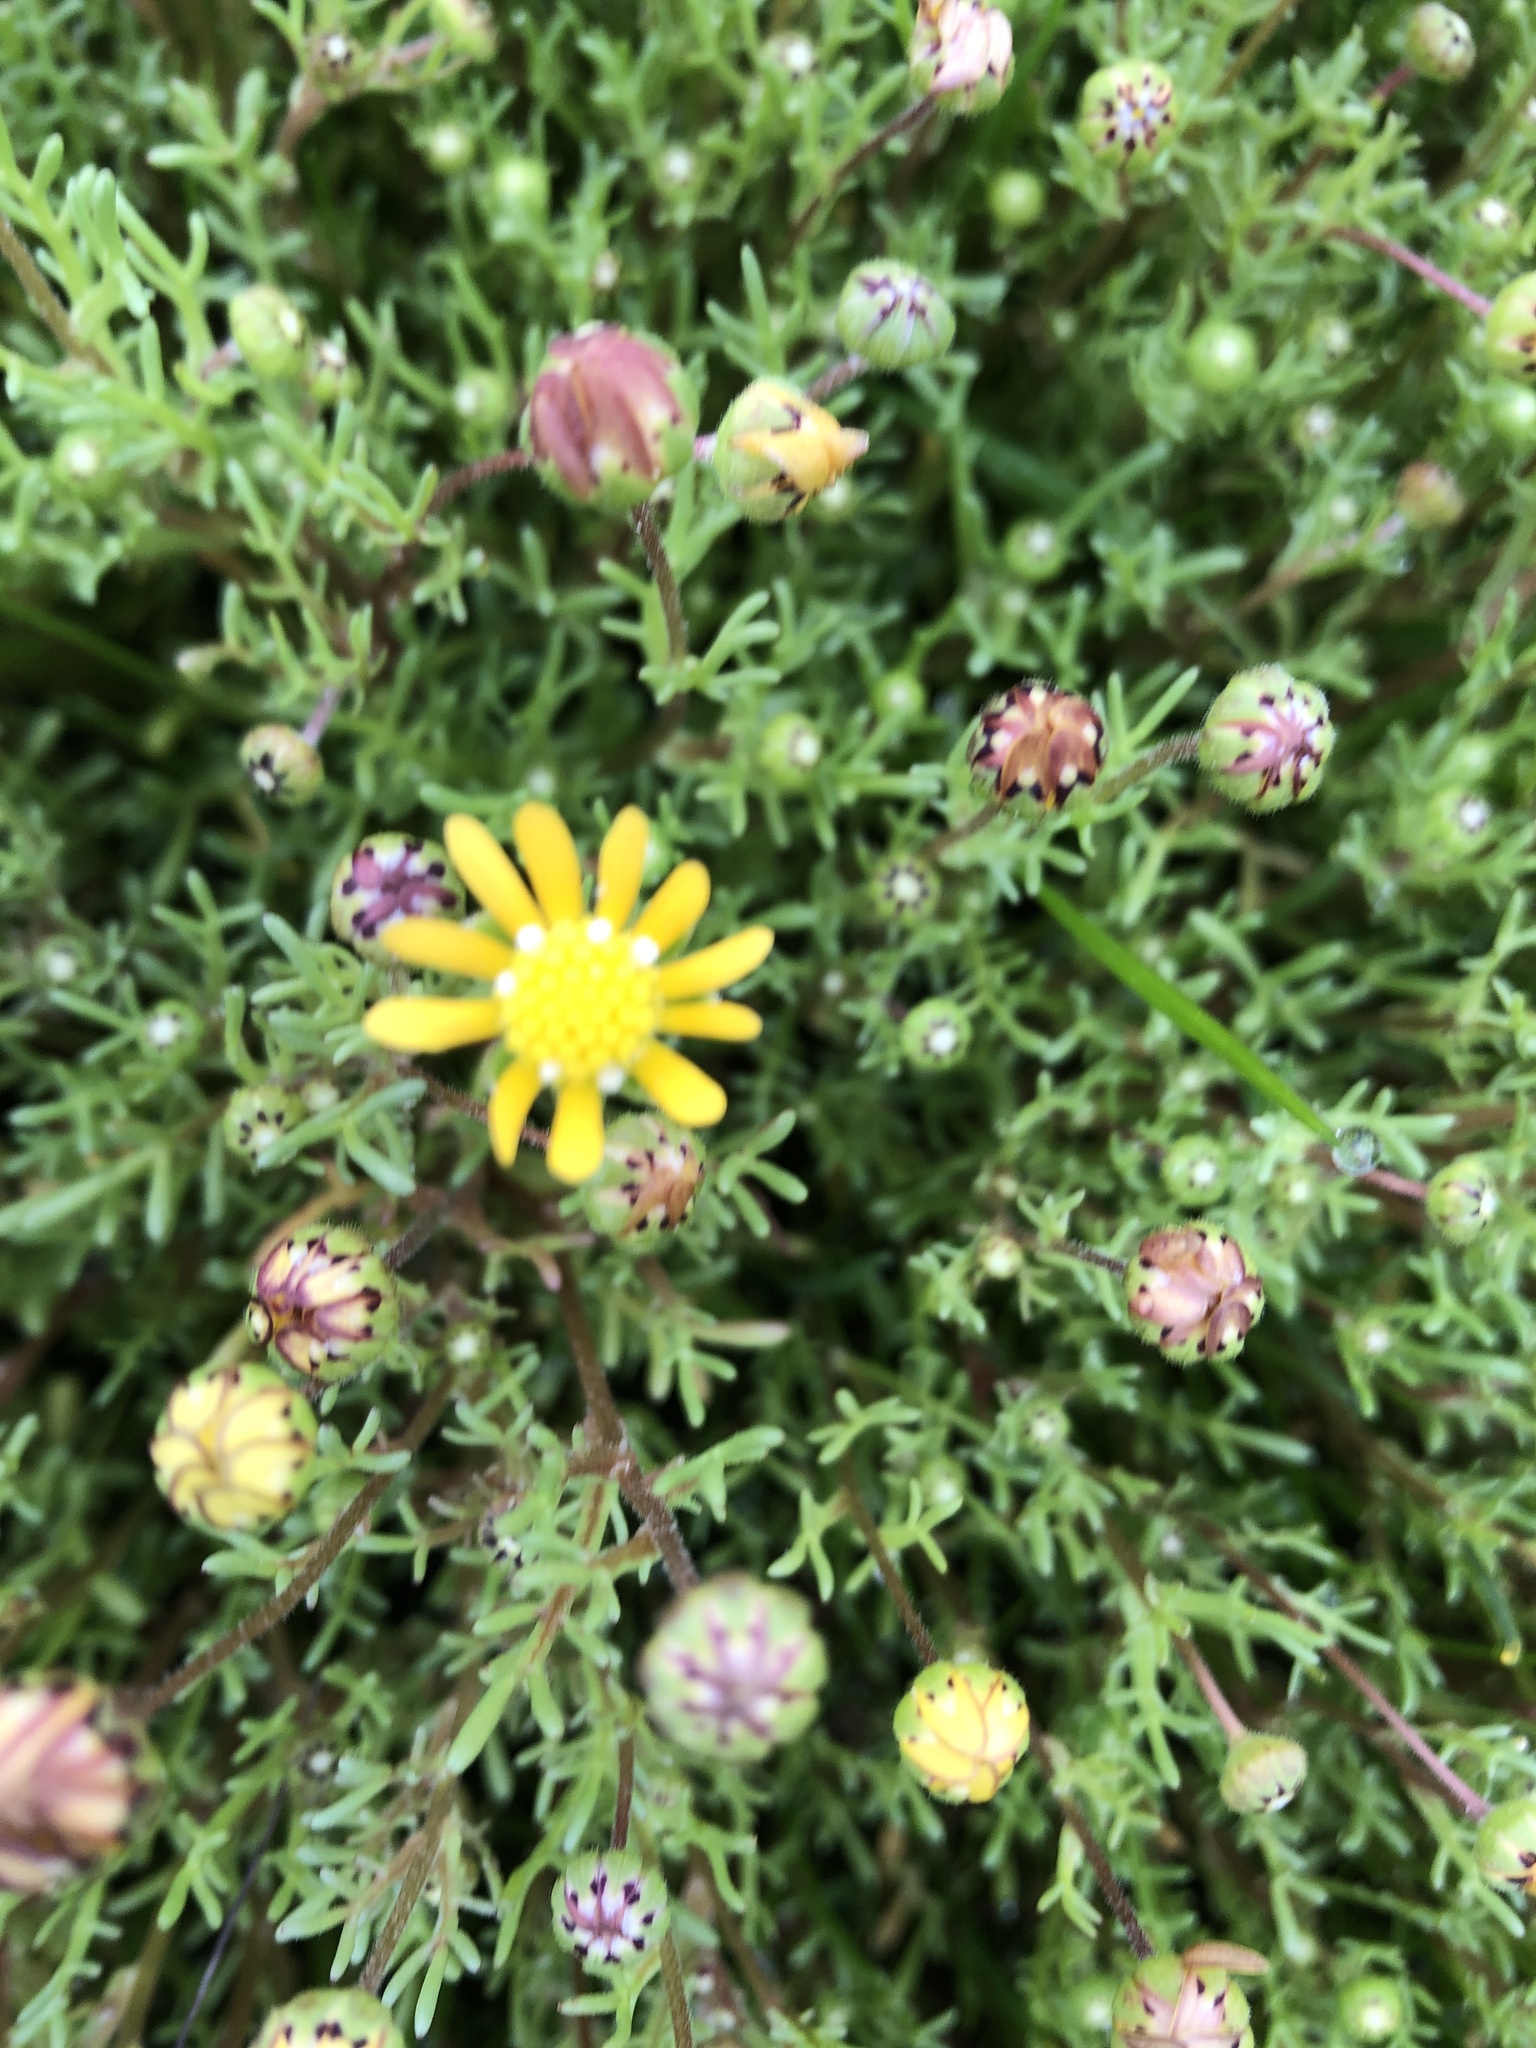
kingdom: Plantae
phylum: Tracheophyta
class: Magnoliopsida
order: Asterales
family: Asteraceae
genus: Blennosperma
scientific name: Blennosperma nanum
